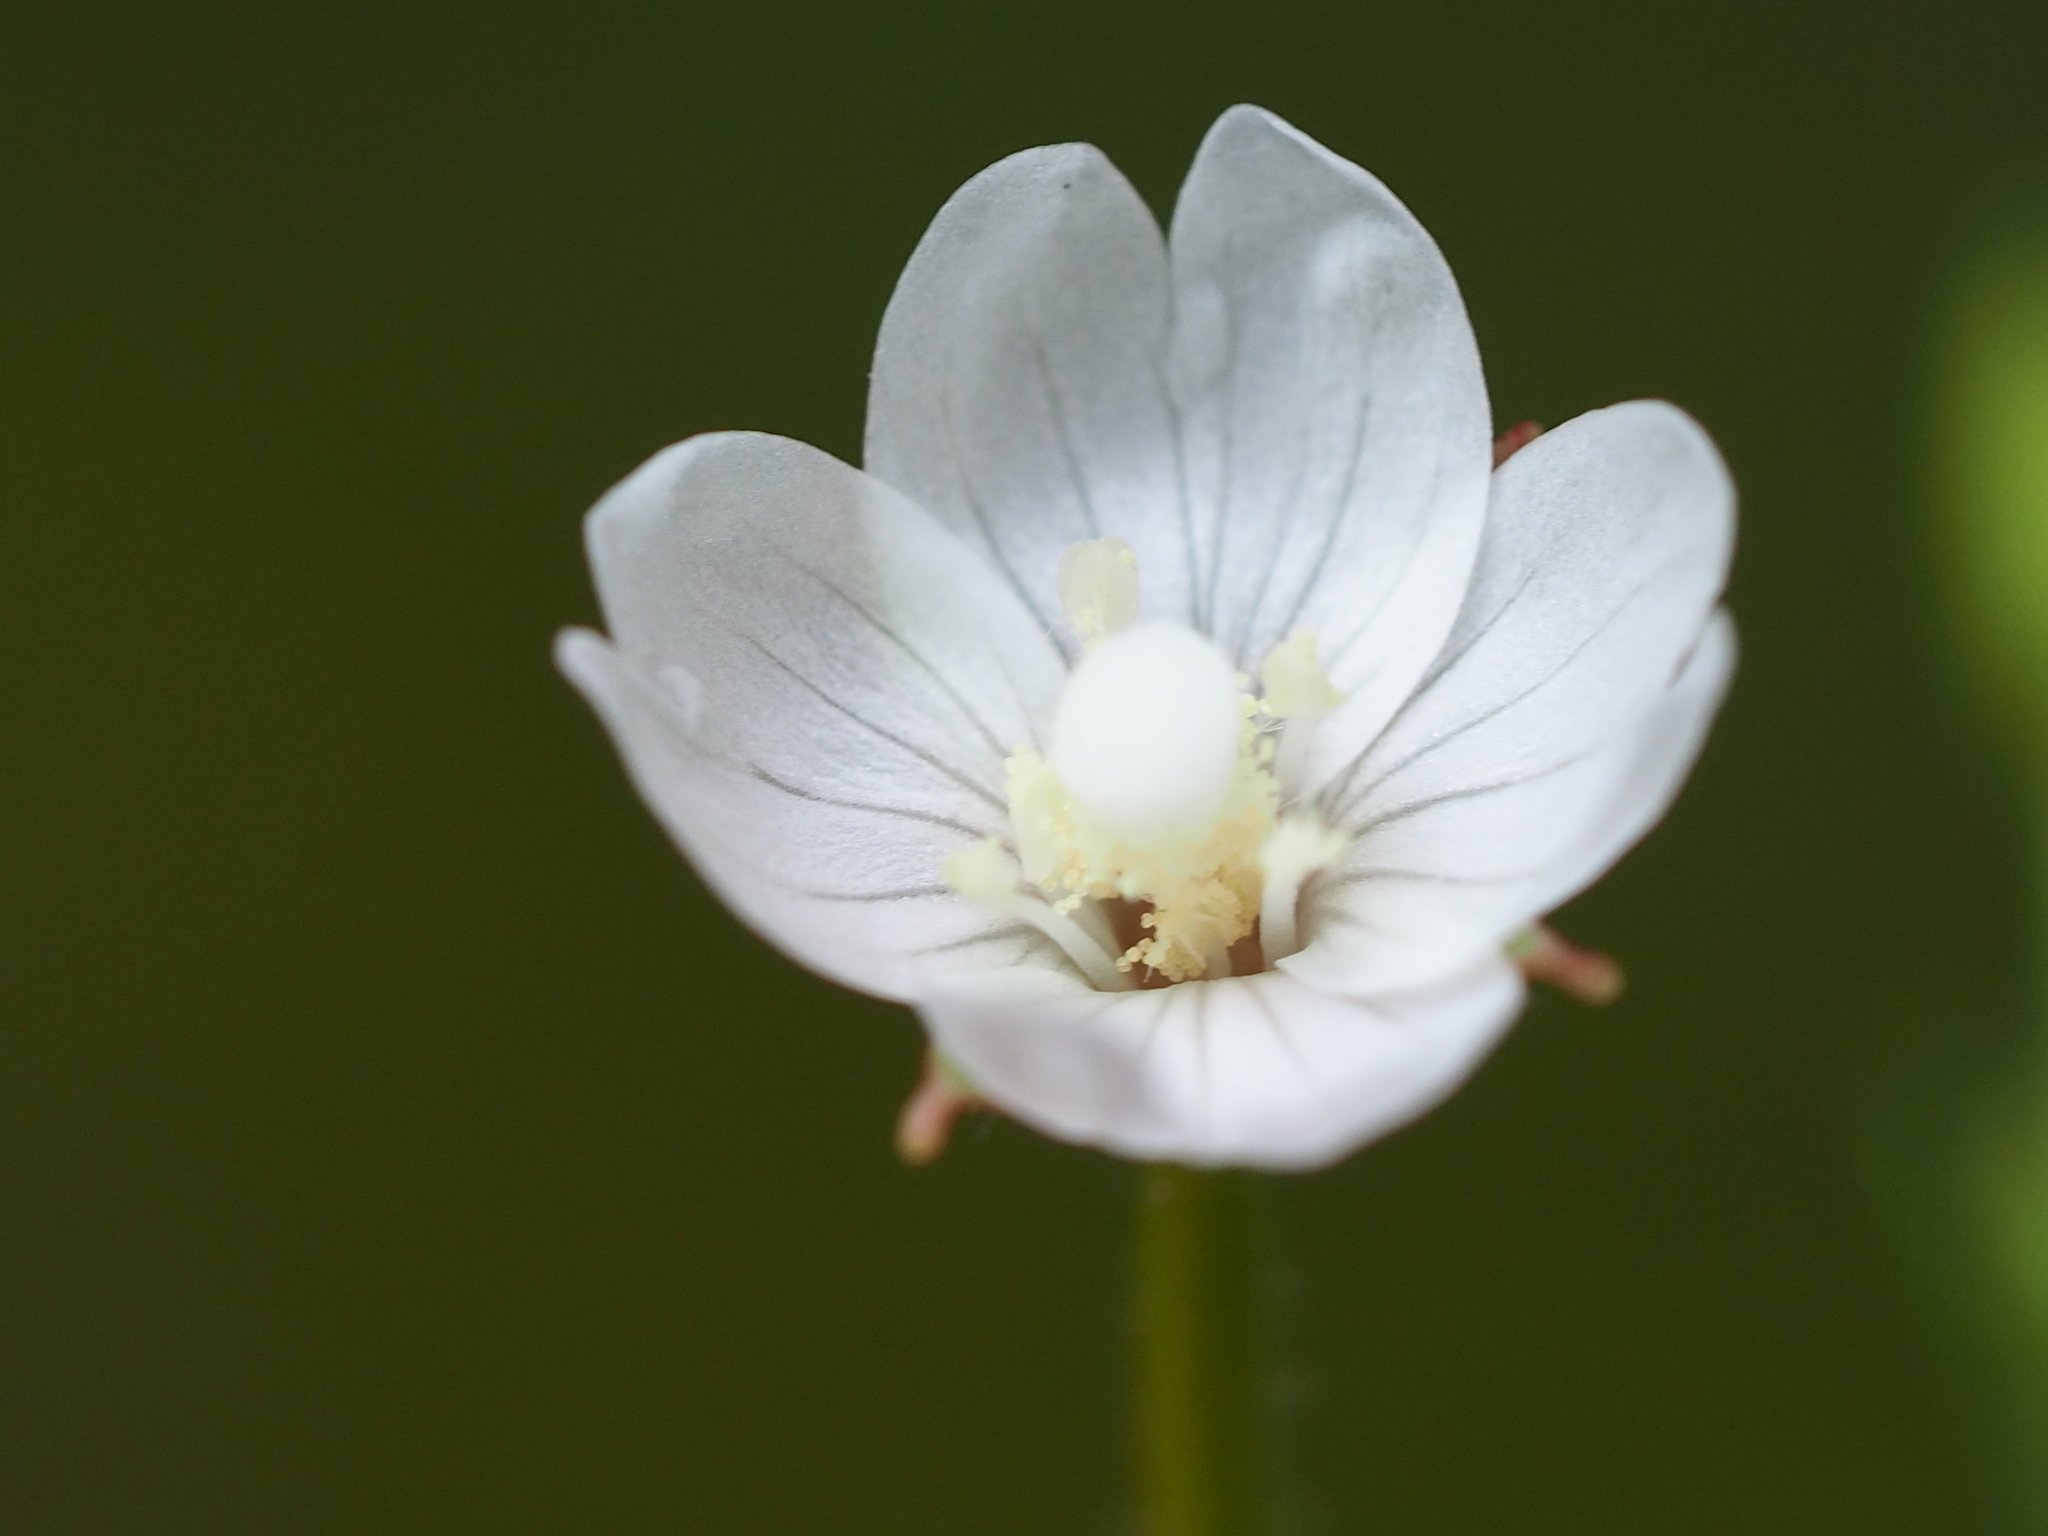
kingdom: Plantae
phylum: Tracheophyta
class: Magnoliopsida
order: Myrtales
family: Onagraceae
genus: Epilobium
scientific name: Epilobium amurense
